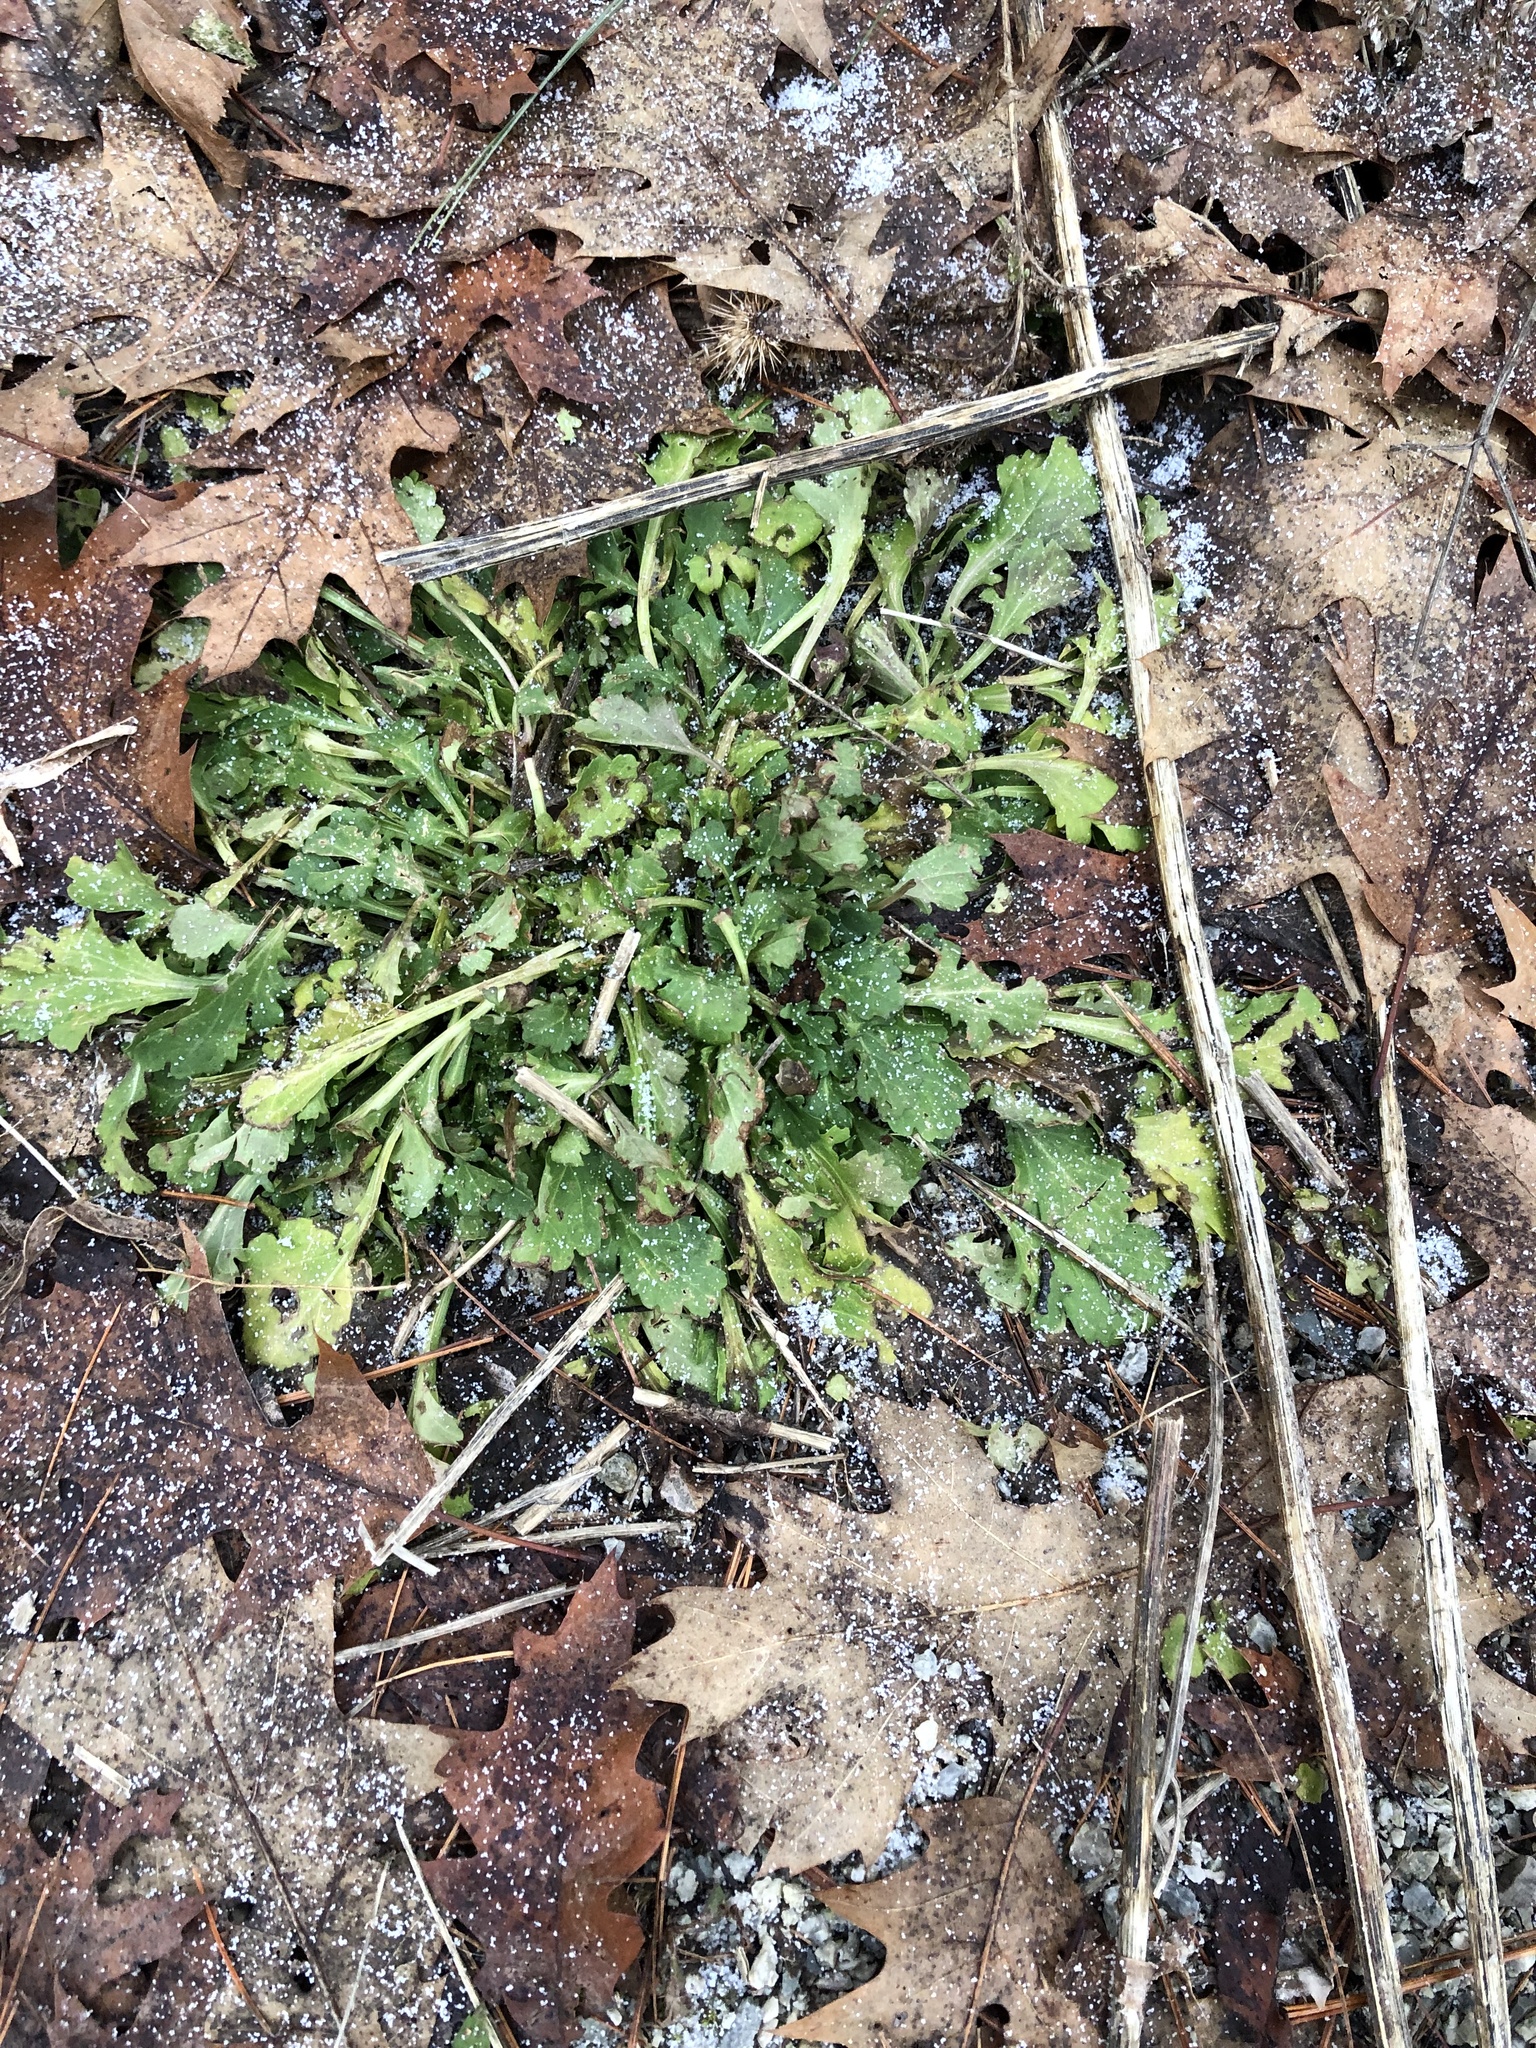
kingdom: Plantae
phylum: Tracheophyta
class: Magnoliopsida
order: Asterales
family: Asteraceae
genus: Leucanthemum
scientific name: Leucanthemum vulgare
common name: Oxeye daisy
